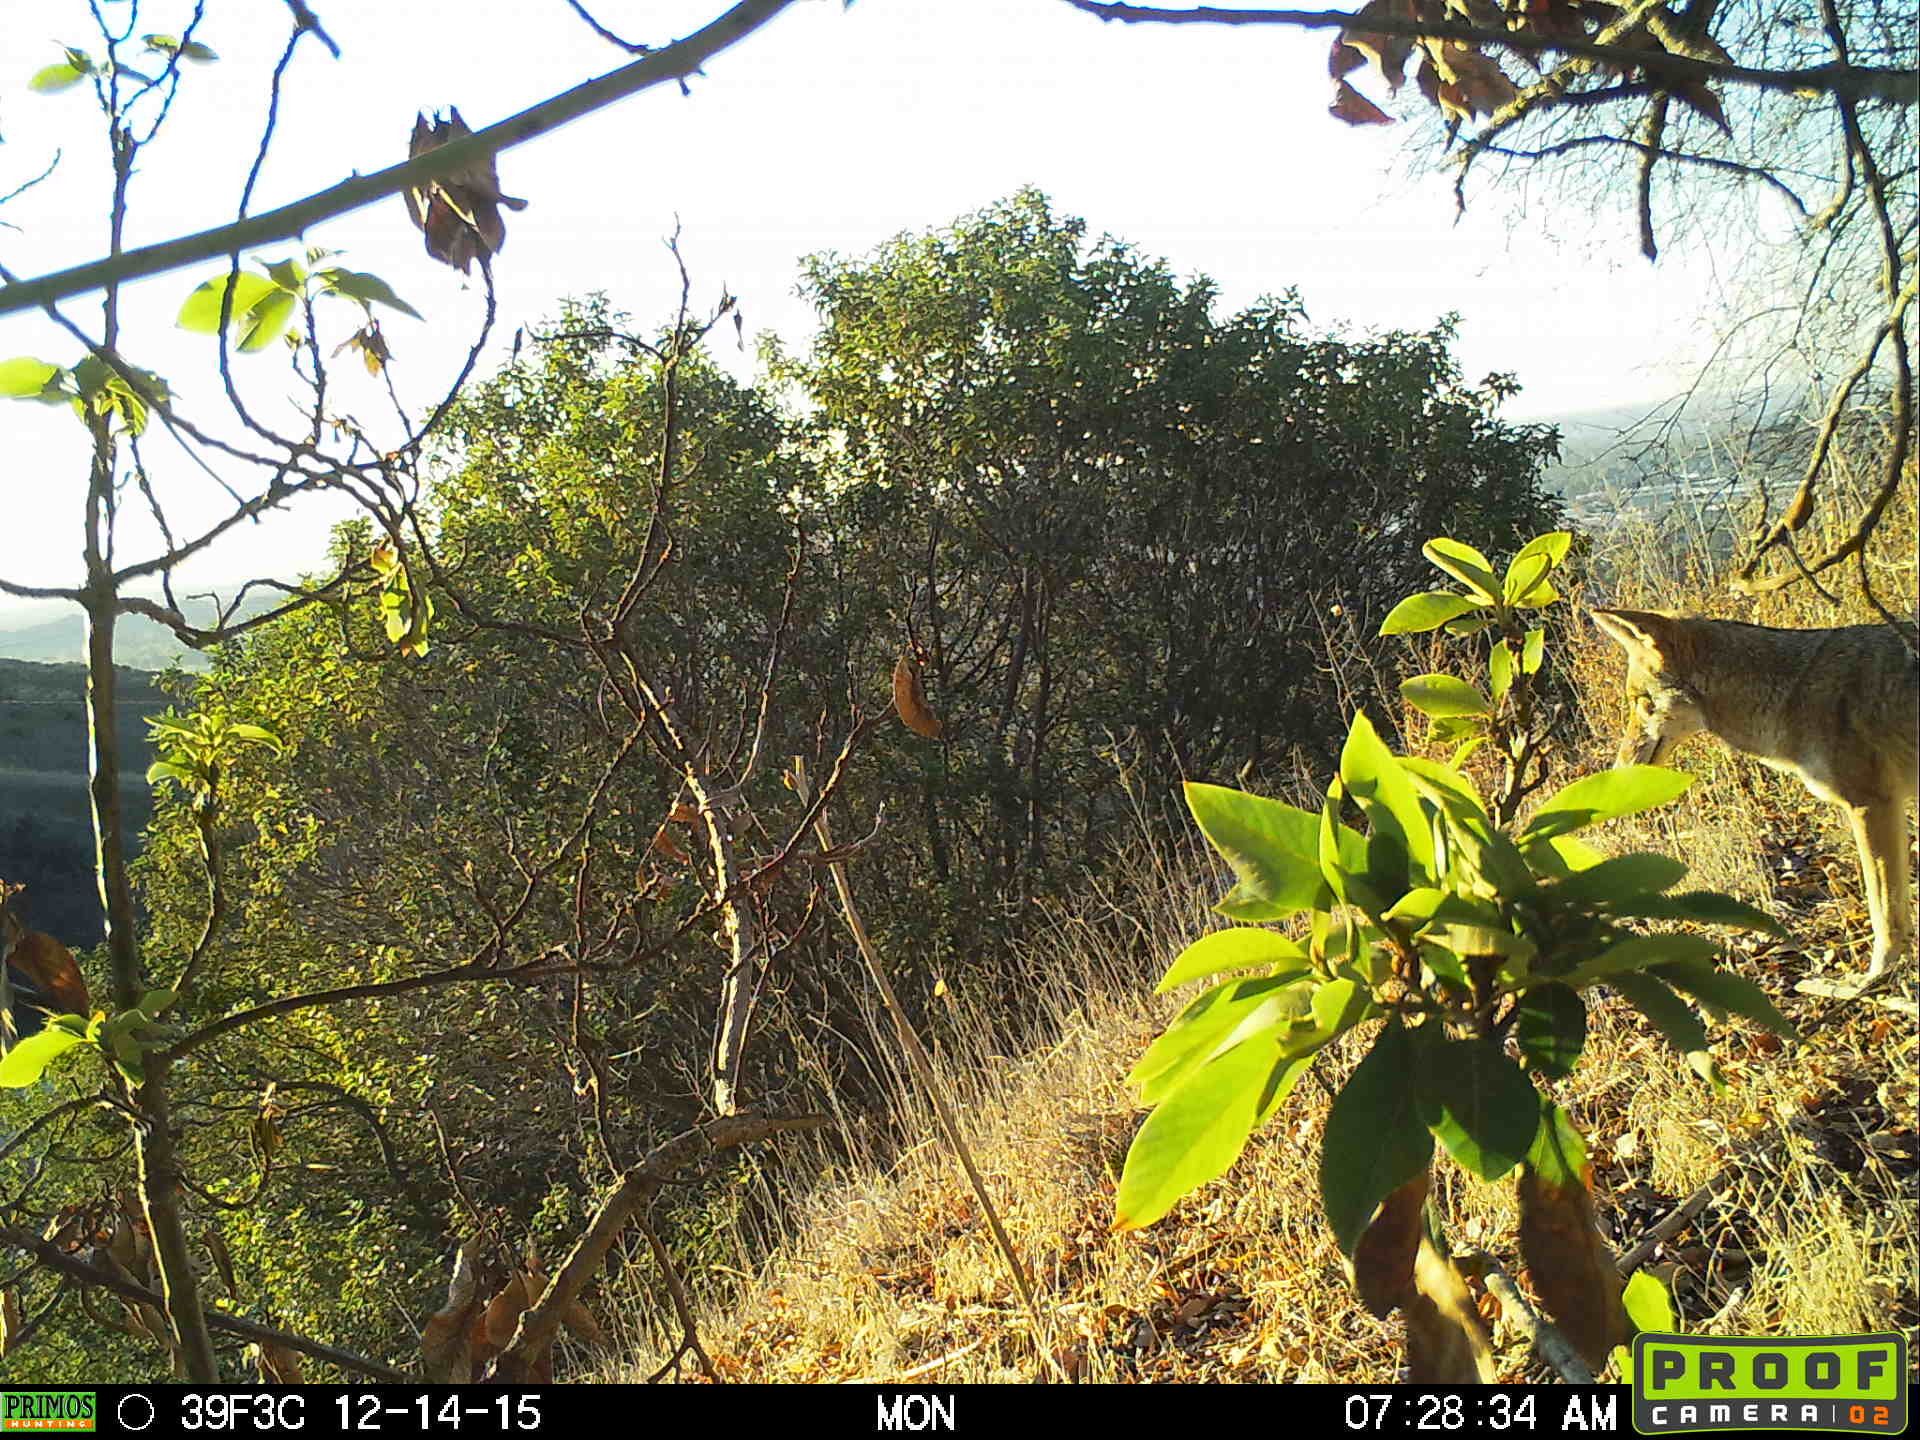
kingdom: Animalia
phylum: Chordata
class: Mammalia
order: Carnivora
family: Canidae
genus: Canis
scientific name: Canis latrans
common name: Coyote
